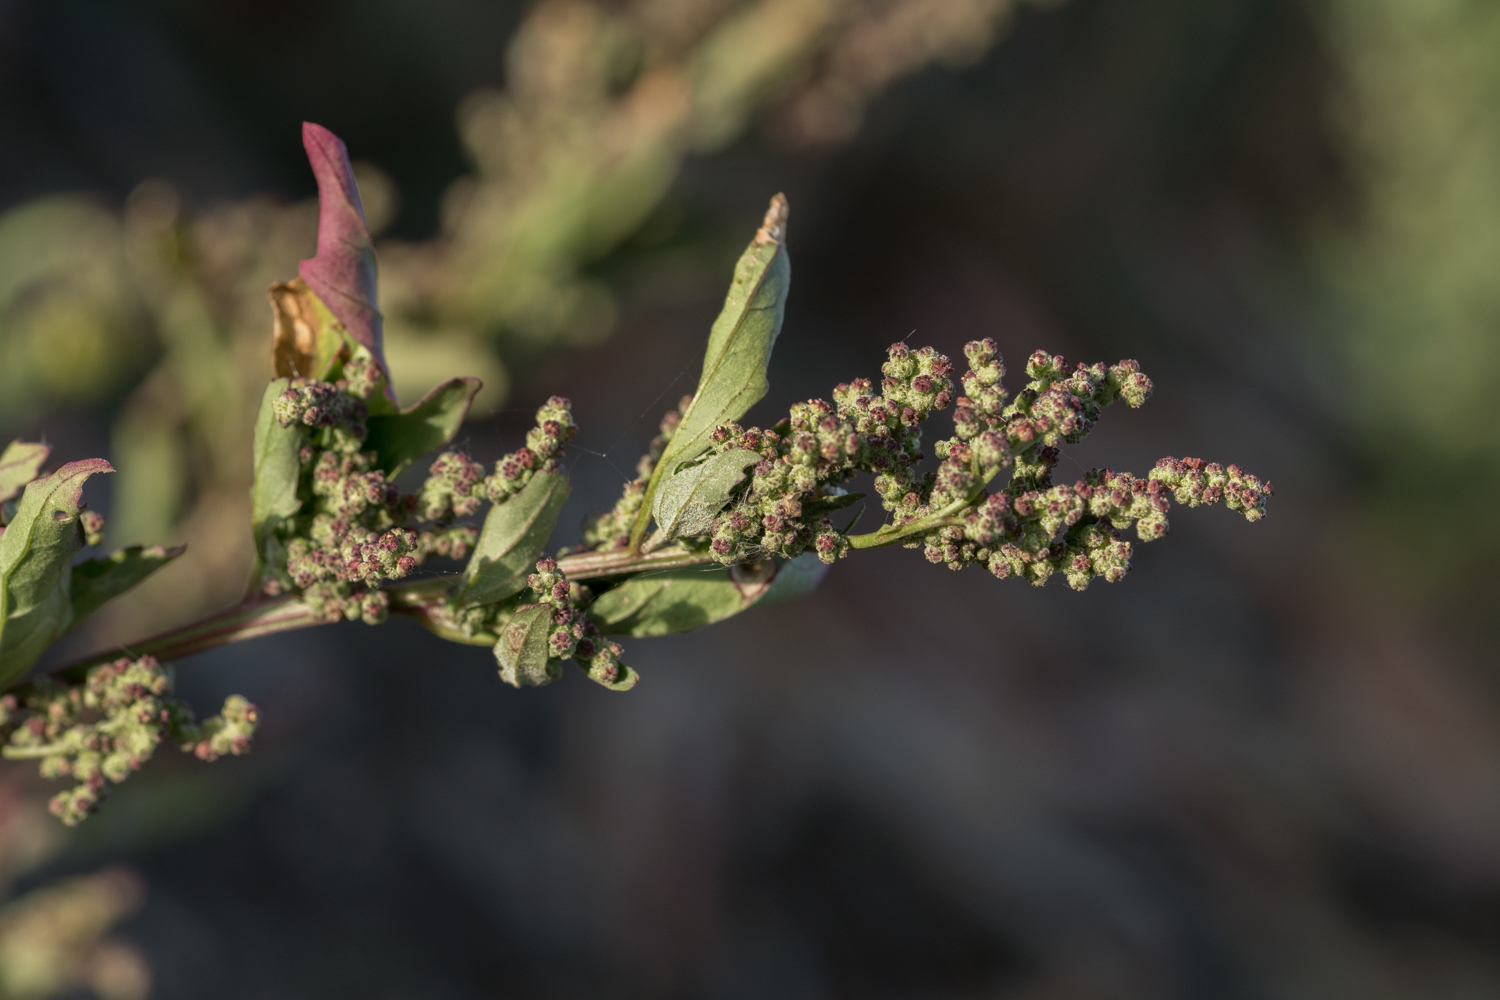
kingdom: Plantae
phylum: Tracheophyta
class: Magnoliopsida
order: Caryophyllales
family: Amaranthaceae
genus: Chenopodiastrum
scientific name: Chenopodiastrum murale
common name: Sowbane
